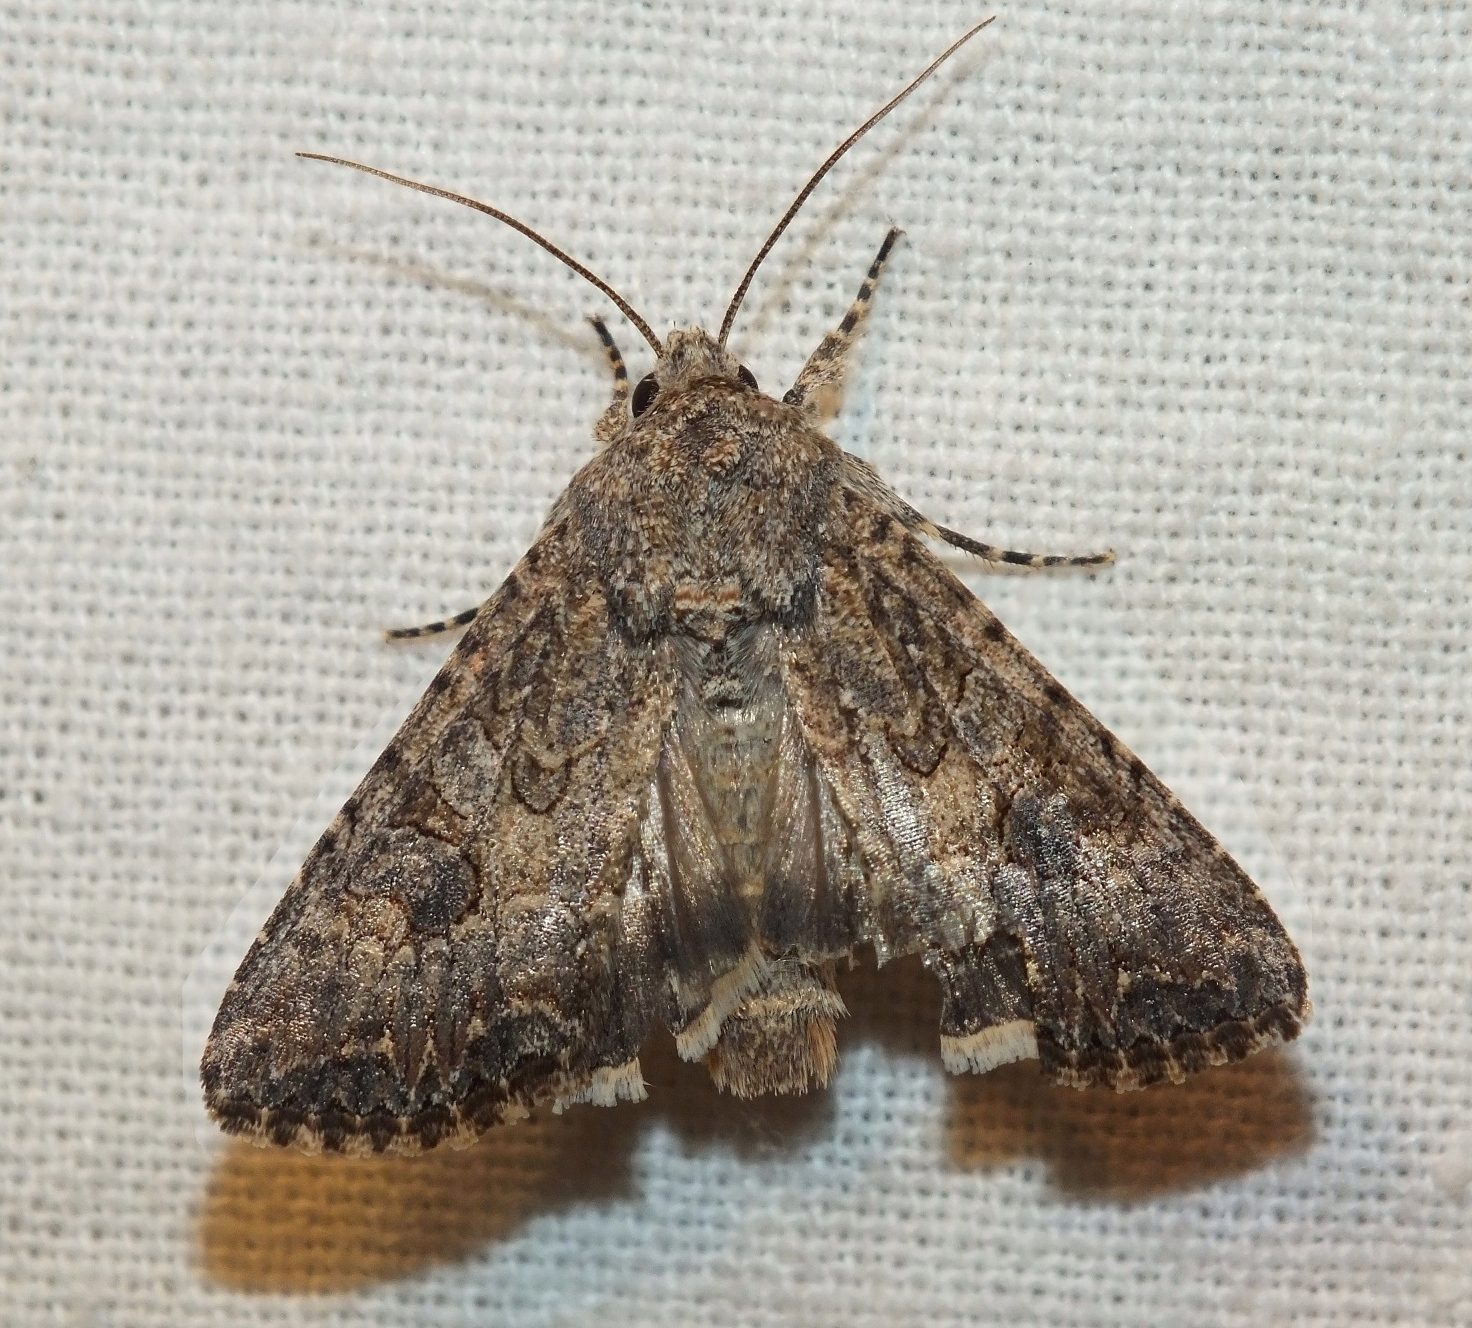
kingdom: Animalia
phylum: Arthropoda
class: Insecta
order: Lepidoptera
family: Noctuidae
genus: Anarta
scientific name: Anarta trifolii
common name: Clover cutworm moth
